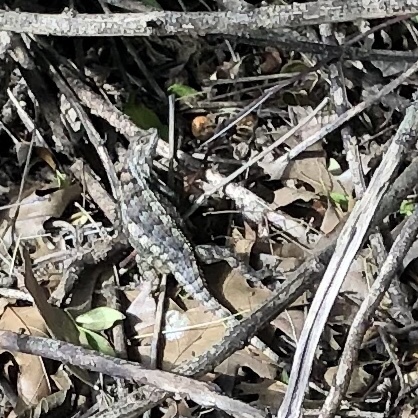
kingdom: Animalia
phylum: Chordata
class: Squamata
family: Phrynosomatidae
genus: Sceloporus
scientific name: Sceloporus olivaceus
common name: Texas spiny lizard
